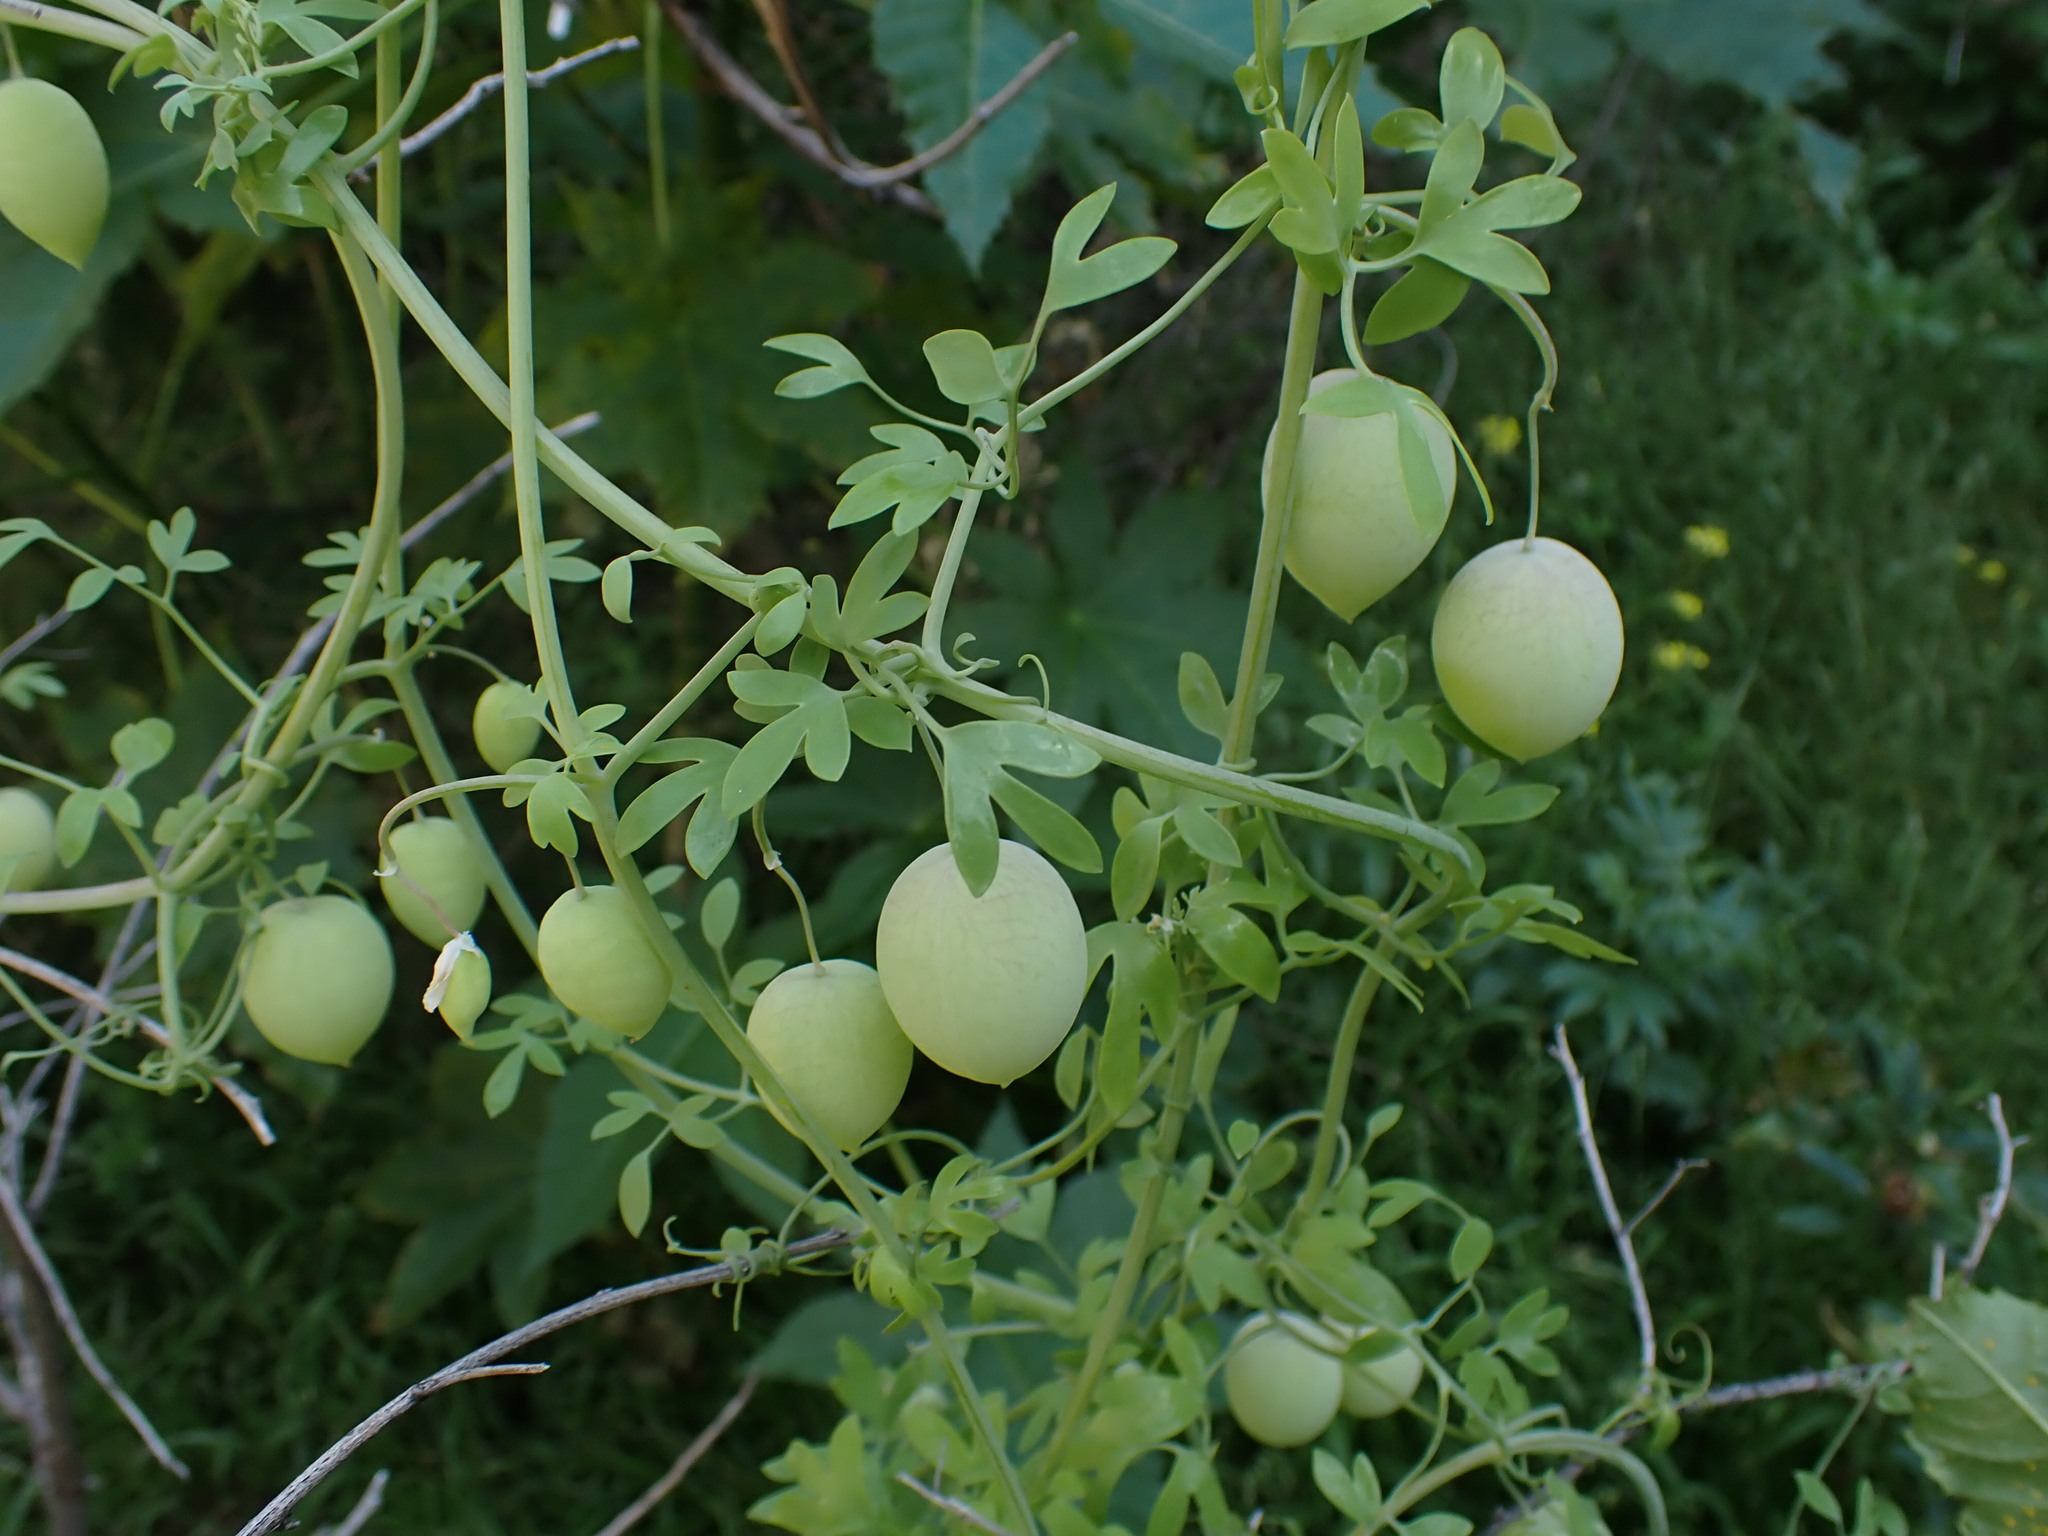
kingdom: Plantae
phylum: Tracheophyta
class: Magnoliopsida
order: Ranunculales
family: Papaveraceae
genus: Cysticapnos
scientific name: Cysticapnos vesicaria
